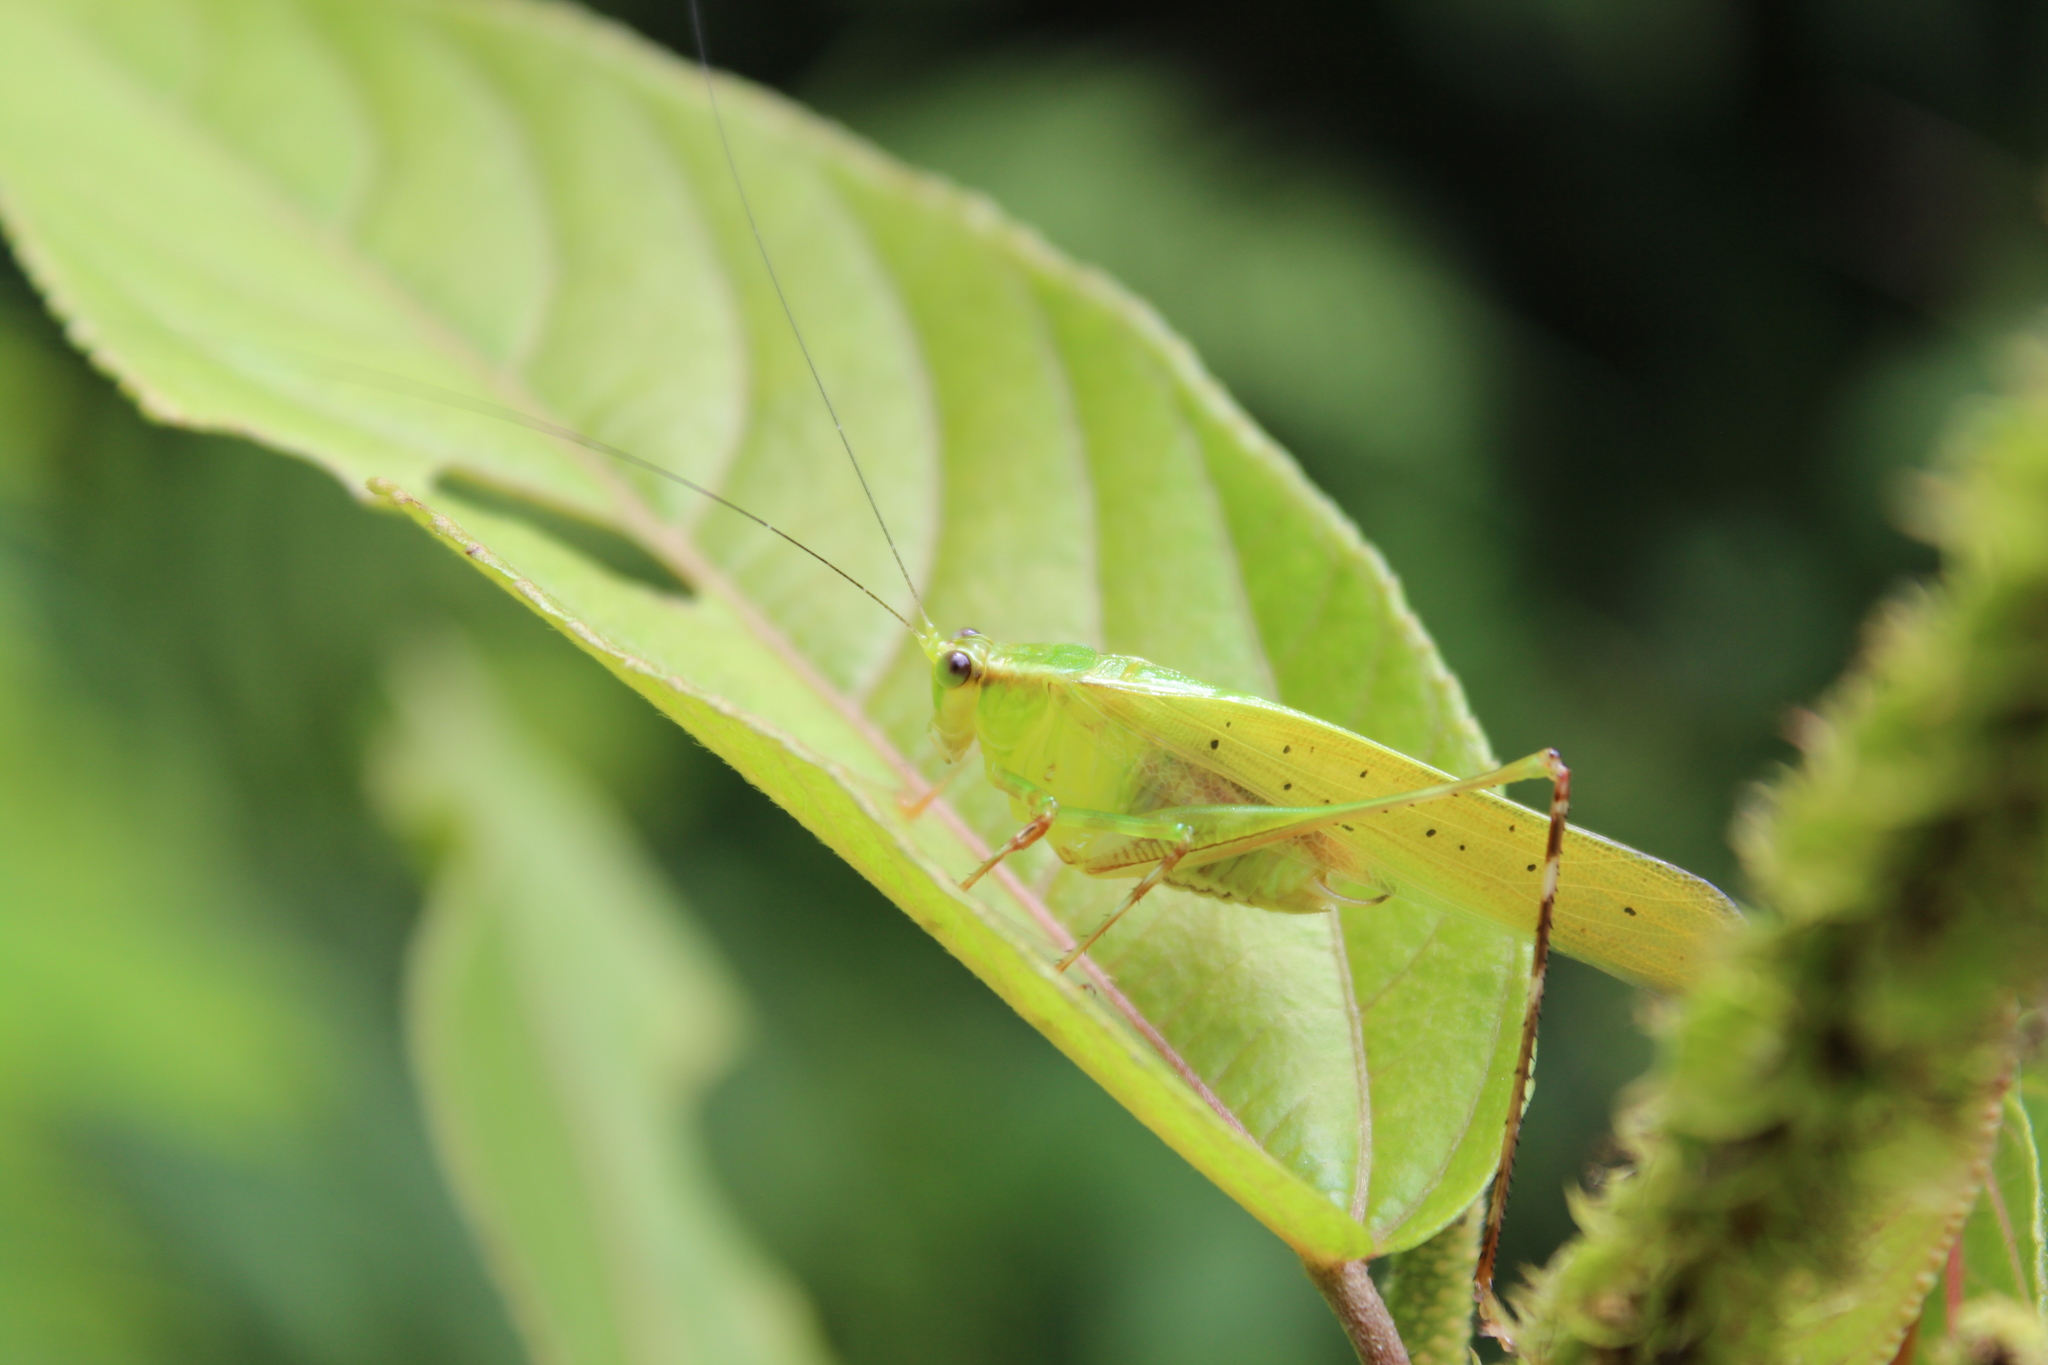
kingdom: Animalia
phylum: Arthropoda
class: Insecta
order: Orthoptera
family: Tettigoniidae
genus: Zenirella
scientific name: Zenirella punctata
